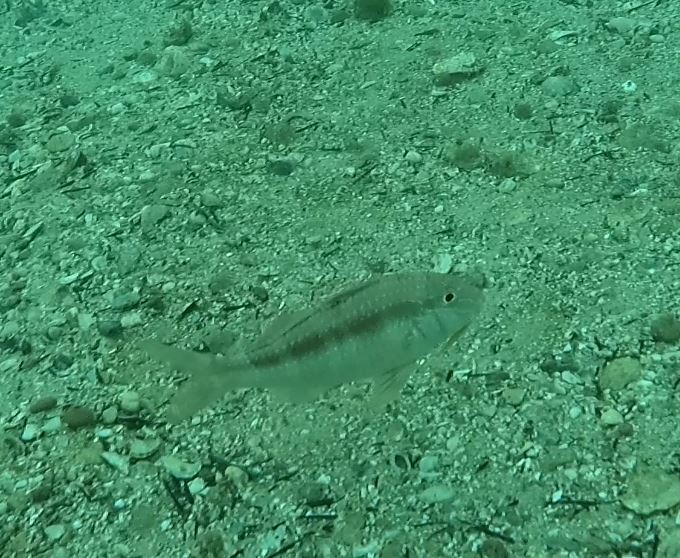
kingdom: Animalia
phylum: Chordata
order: Perciformes
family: Mullidae
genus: Upeneichthys
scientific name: Upeneichthys lineatus
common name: Red mullet
